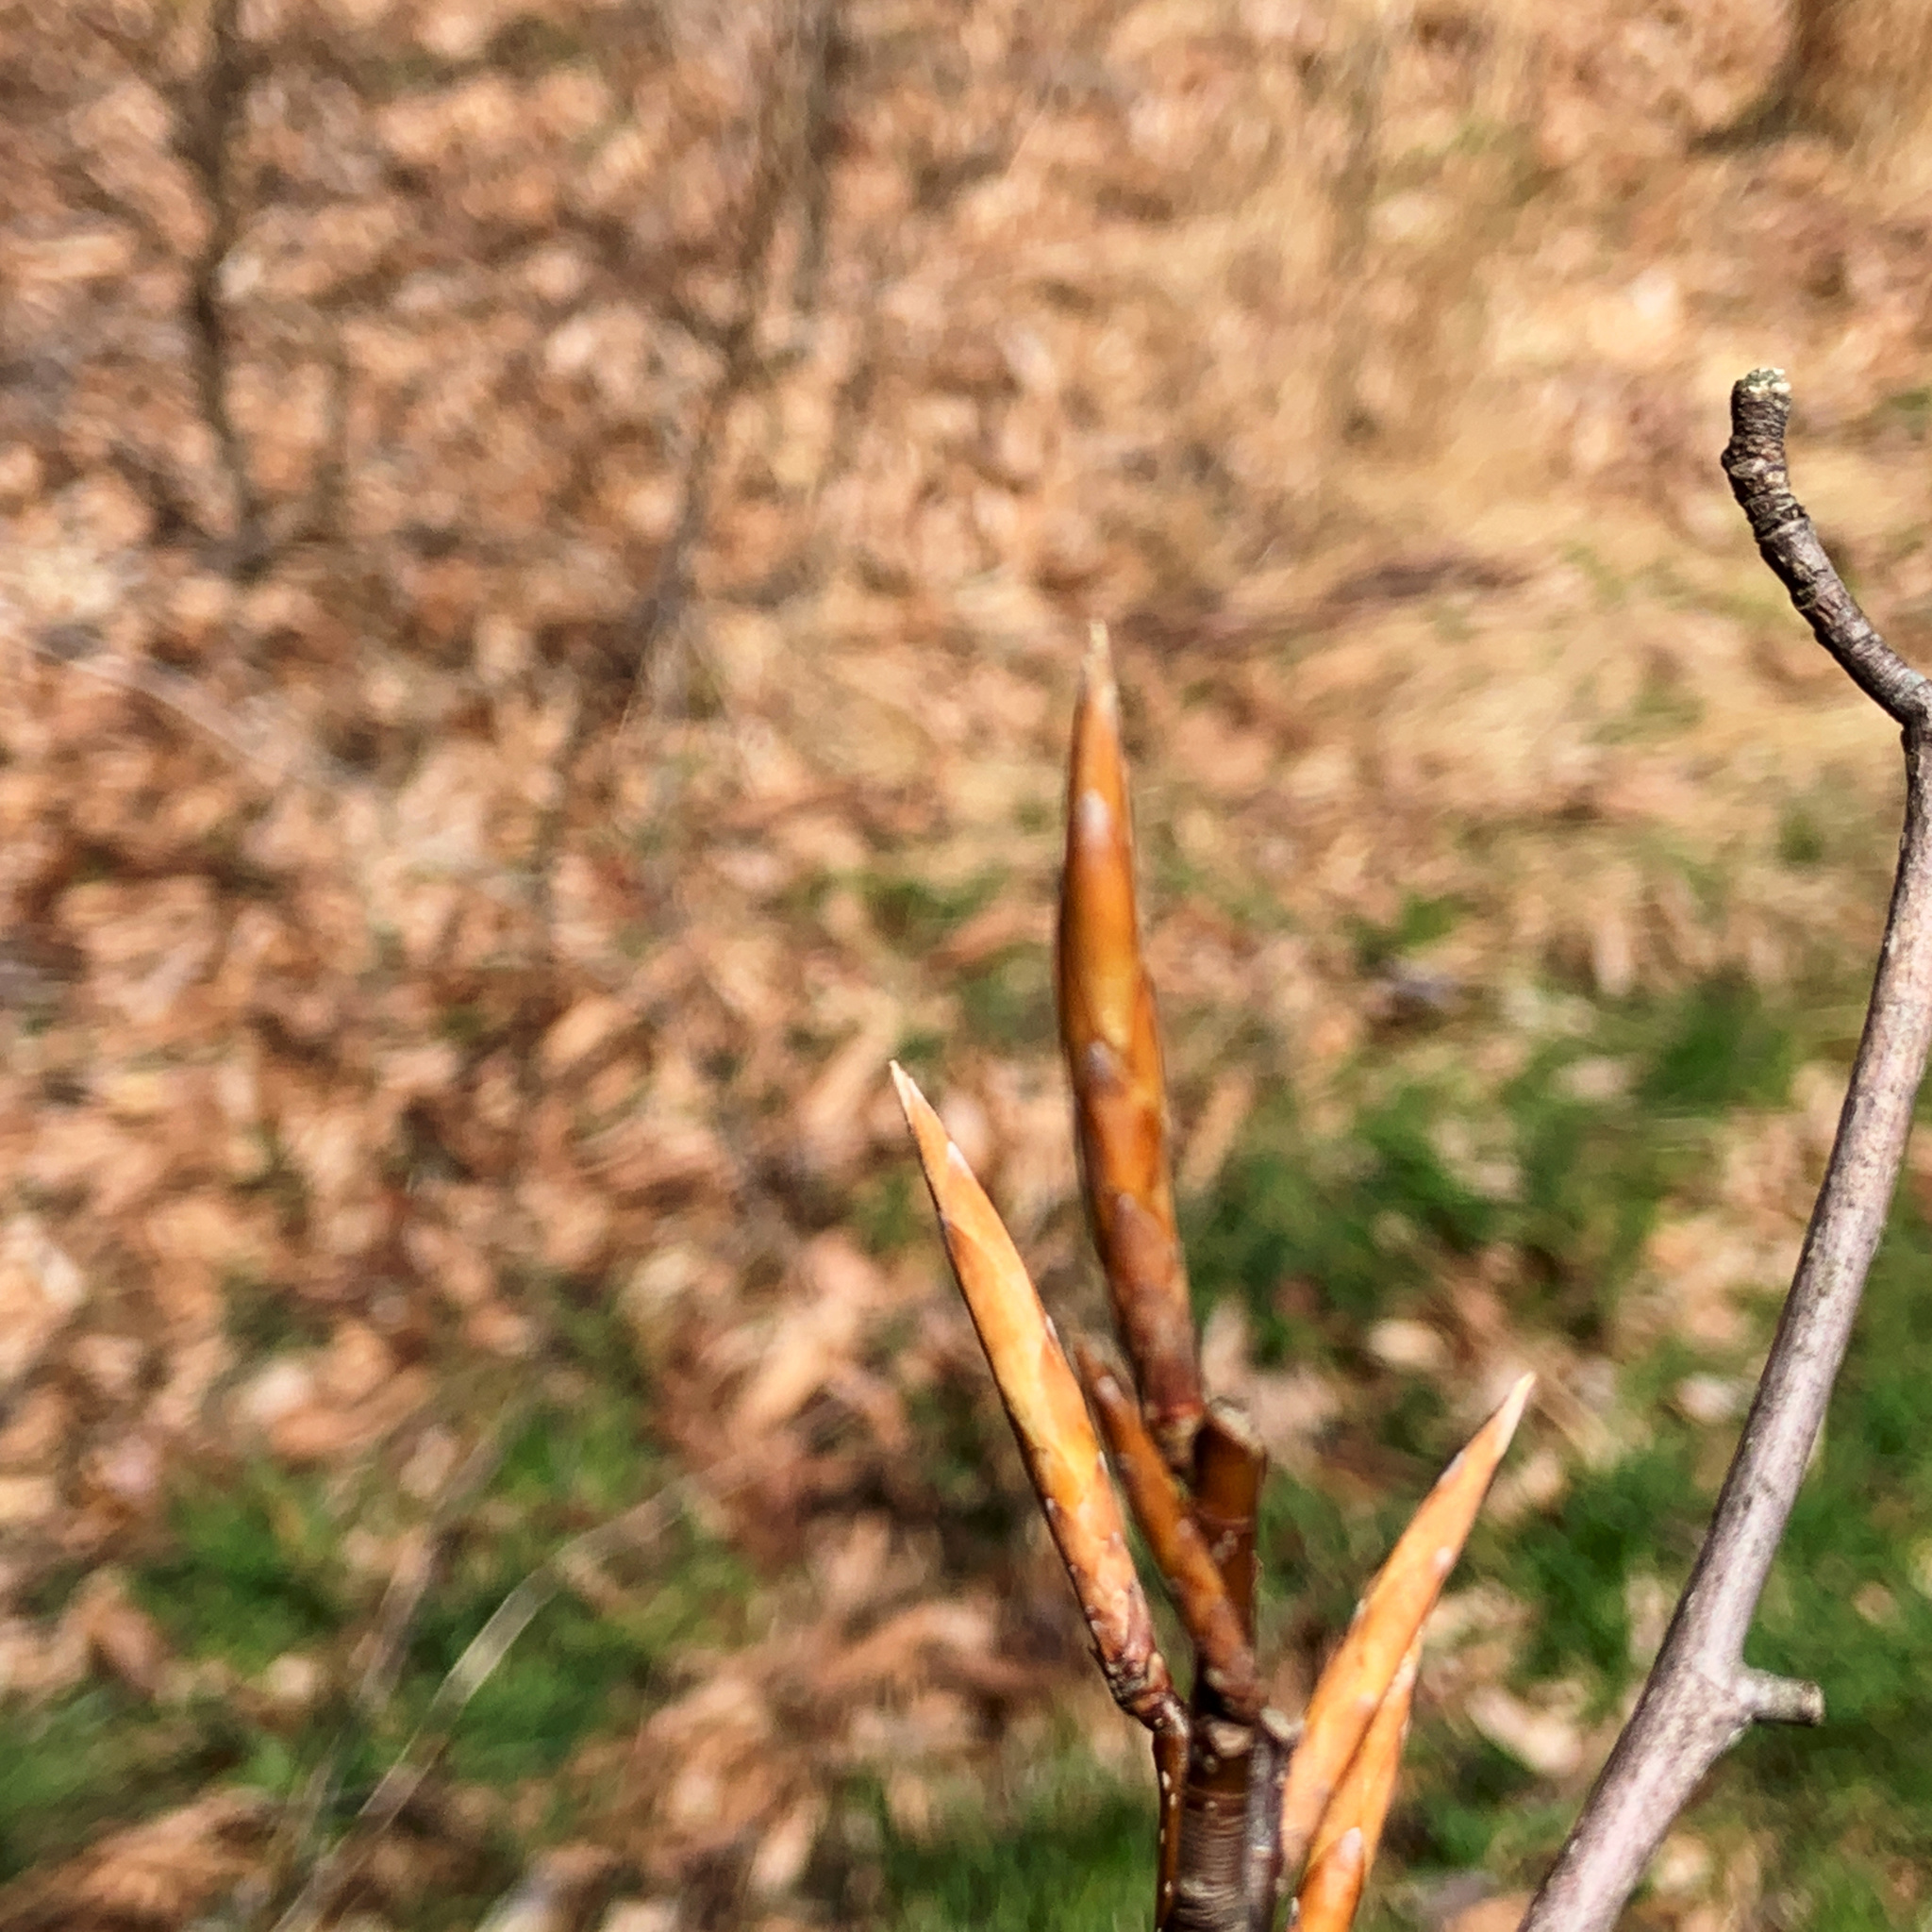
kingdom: Plantae
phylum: Tracheophyta
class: Magnoliopsida
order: Fagales
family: Fagaceae
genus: Fagus
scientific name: Fagus grandifolia
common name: American beech
